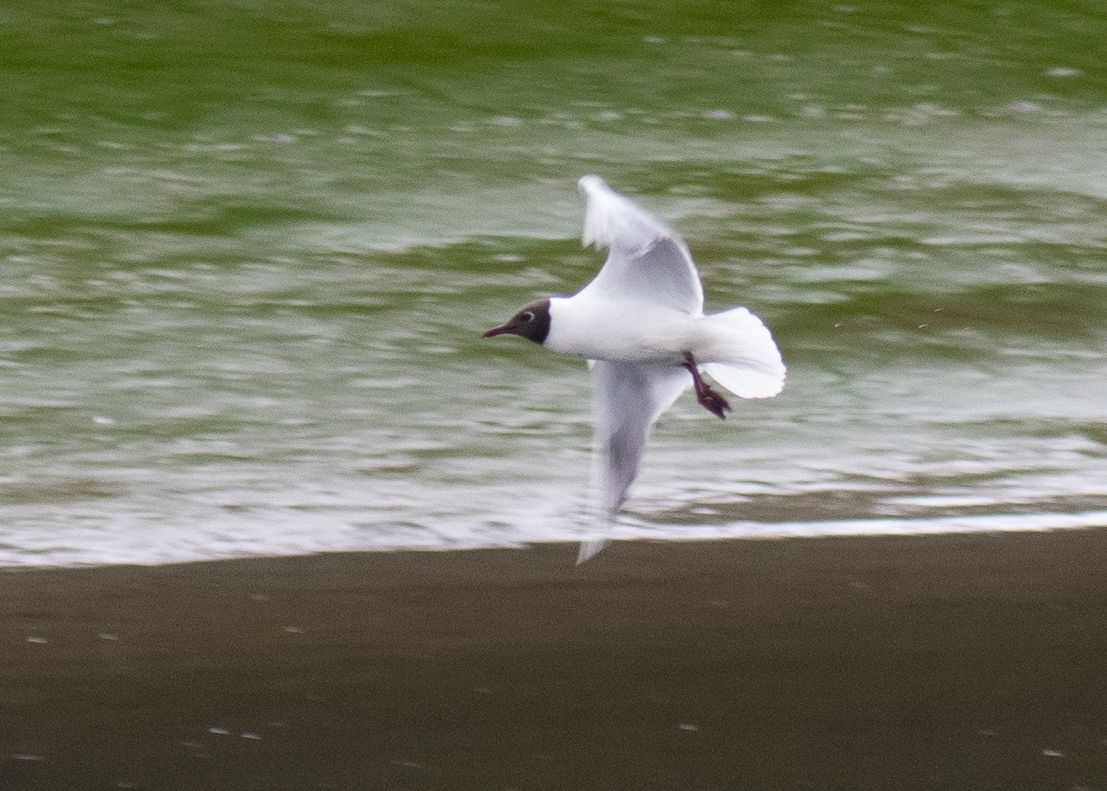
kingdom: Animalia
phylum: Chordata
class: Aves
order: Charadriiformes
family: Laridae
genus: Chroicocephalus
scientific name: Chroicocephalus ridibundus
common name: Black-headed gull
